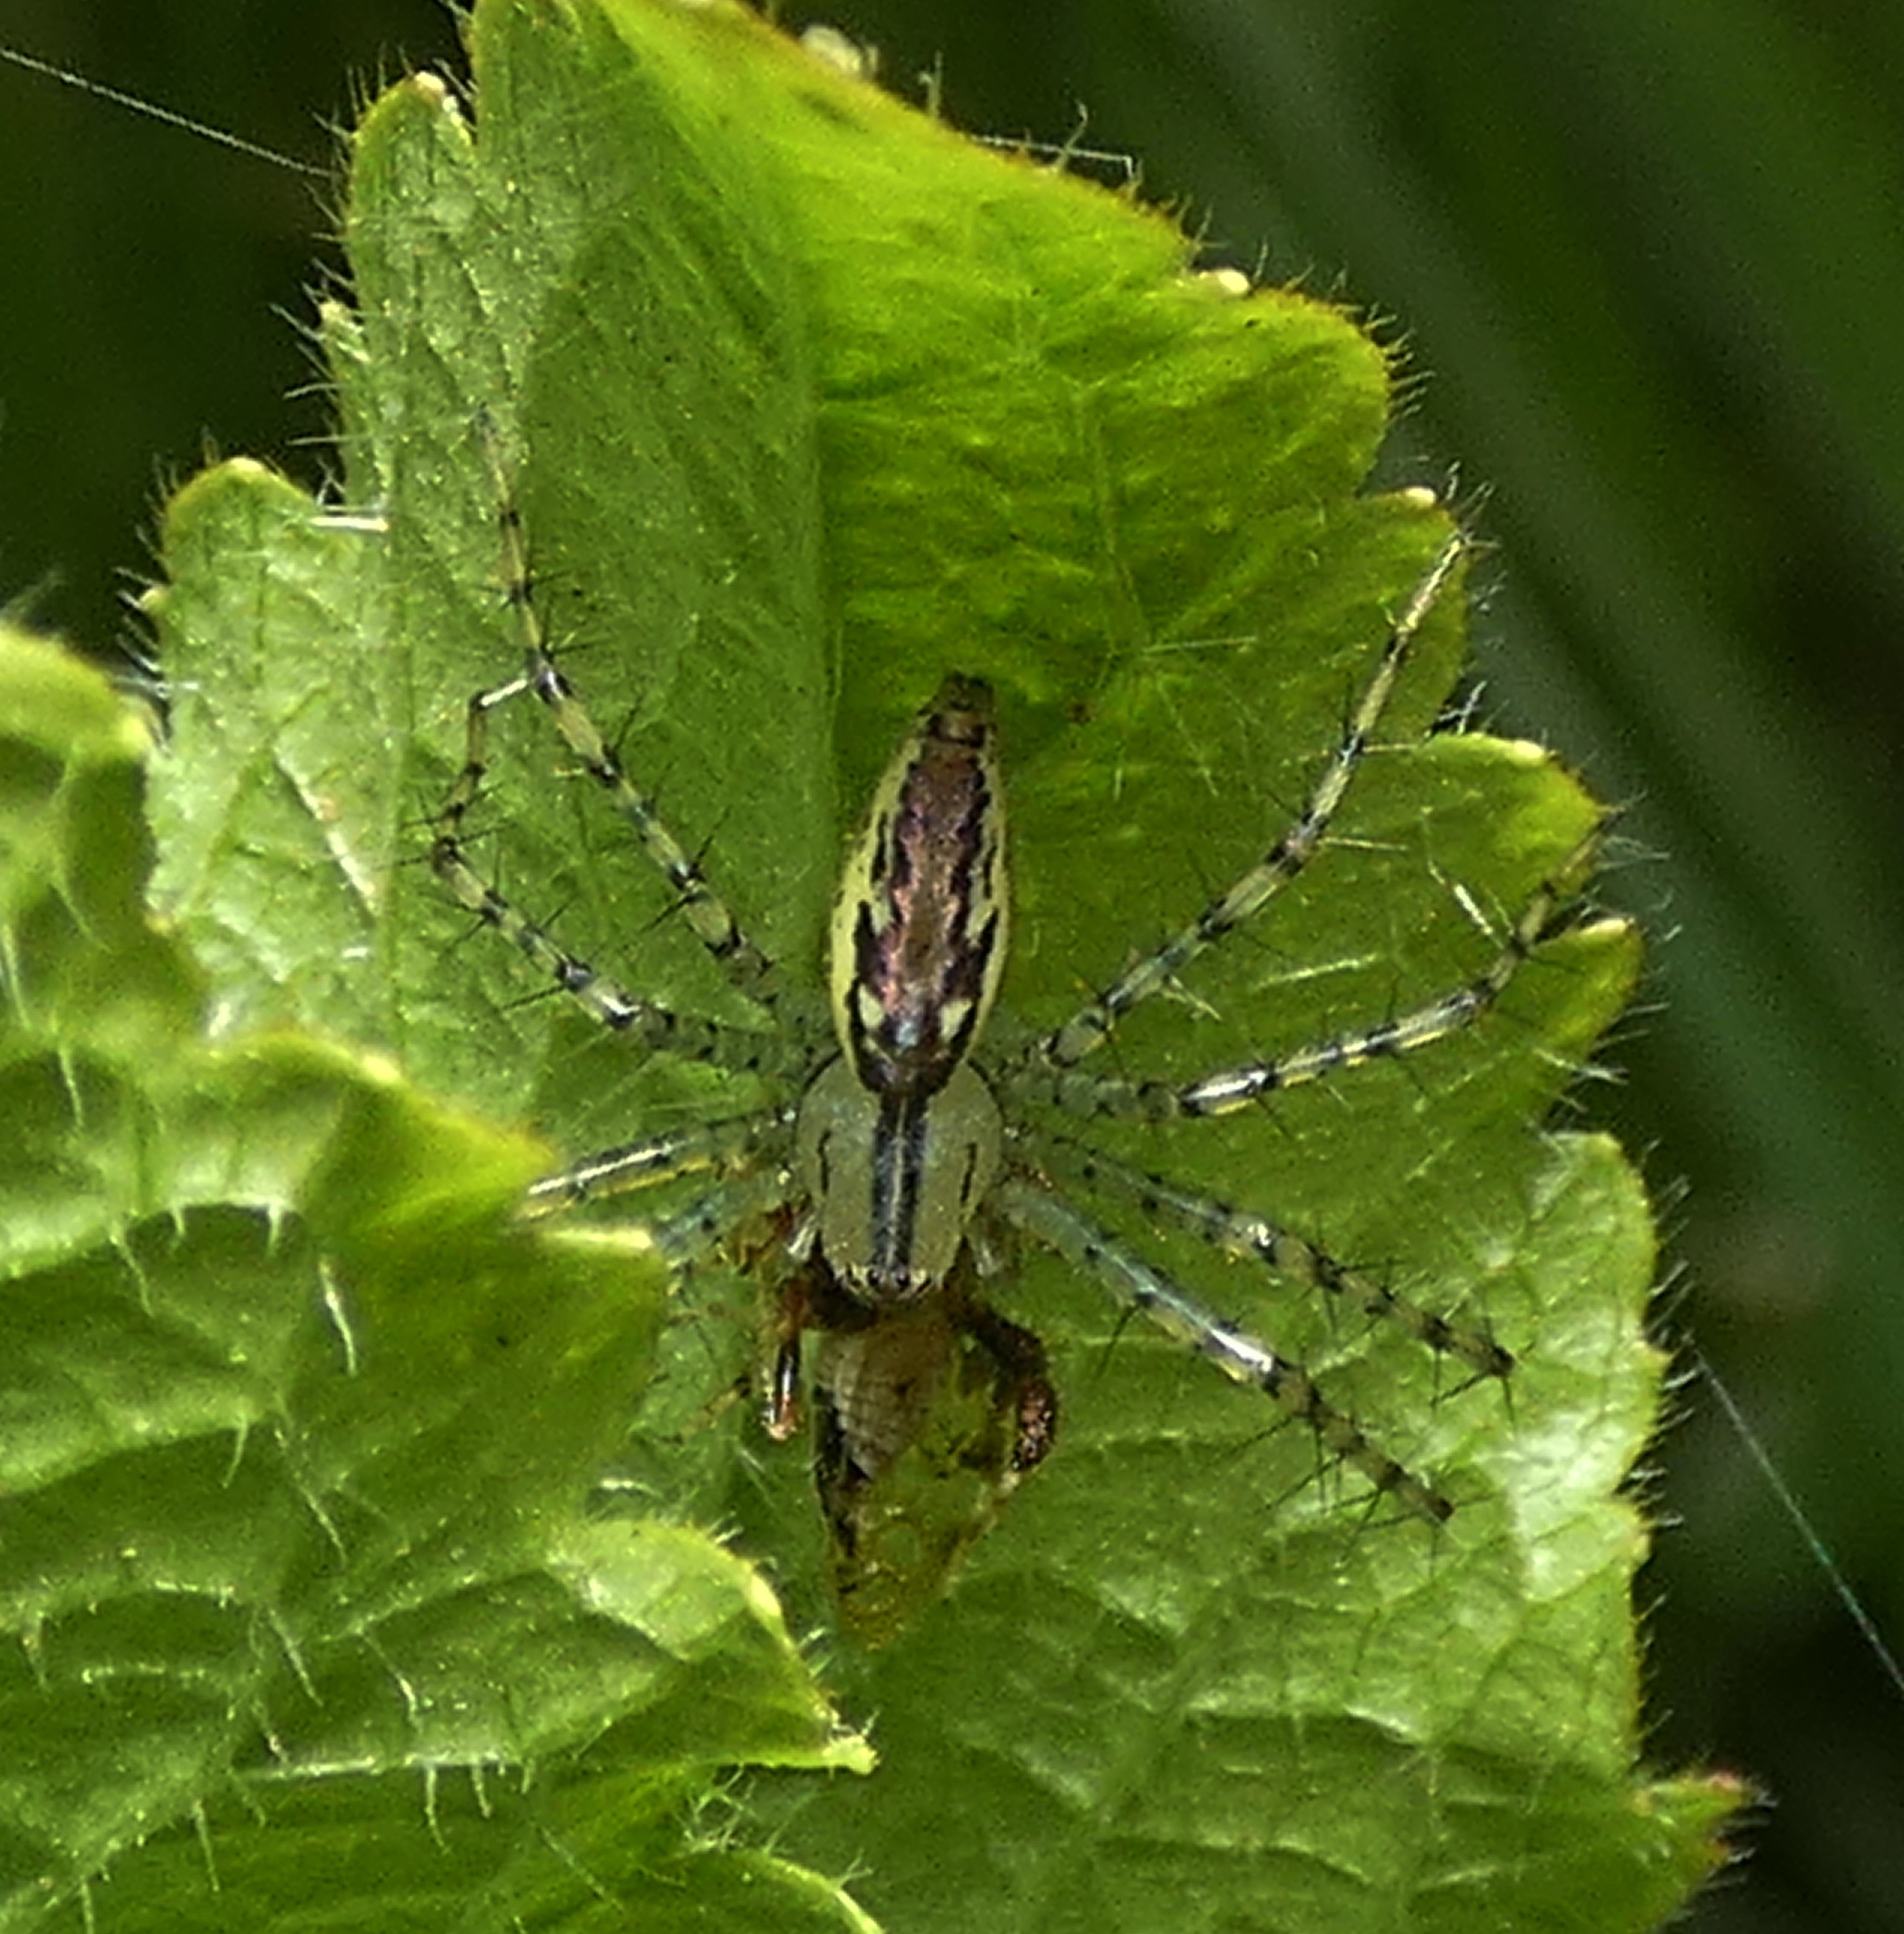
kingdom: Animalia
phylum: Arthropoda
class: Arachnida
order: Araneae
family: Oxyopidae
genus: Peucetia
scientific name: Peucetia rubrolineata
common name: Lynx spiders
